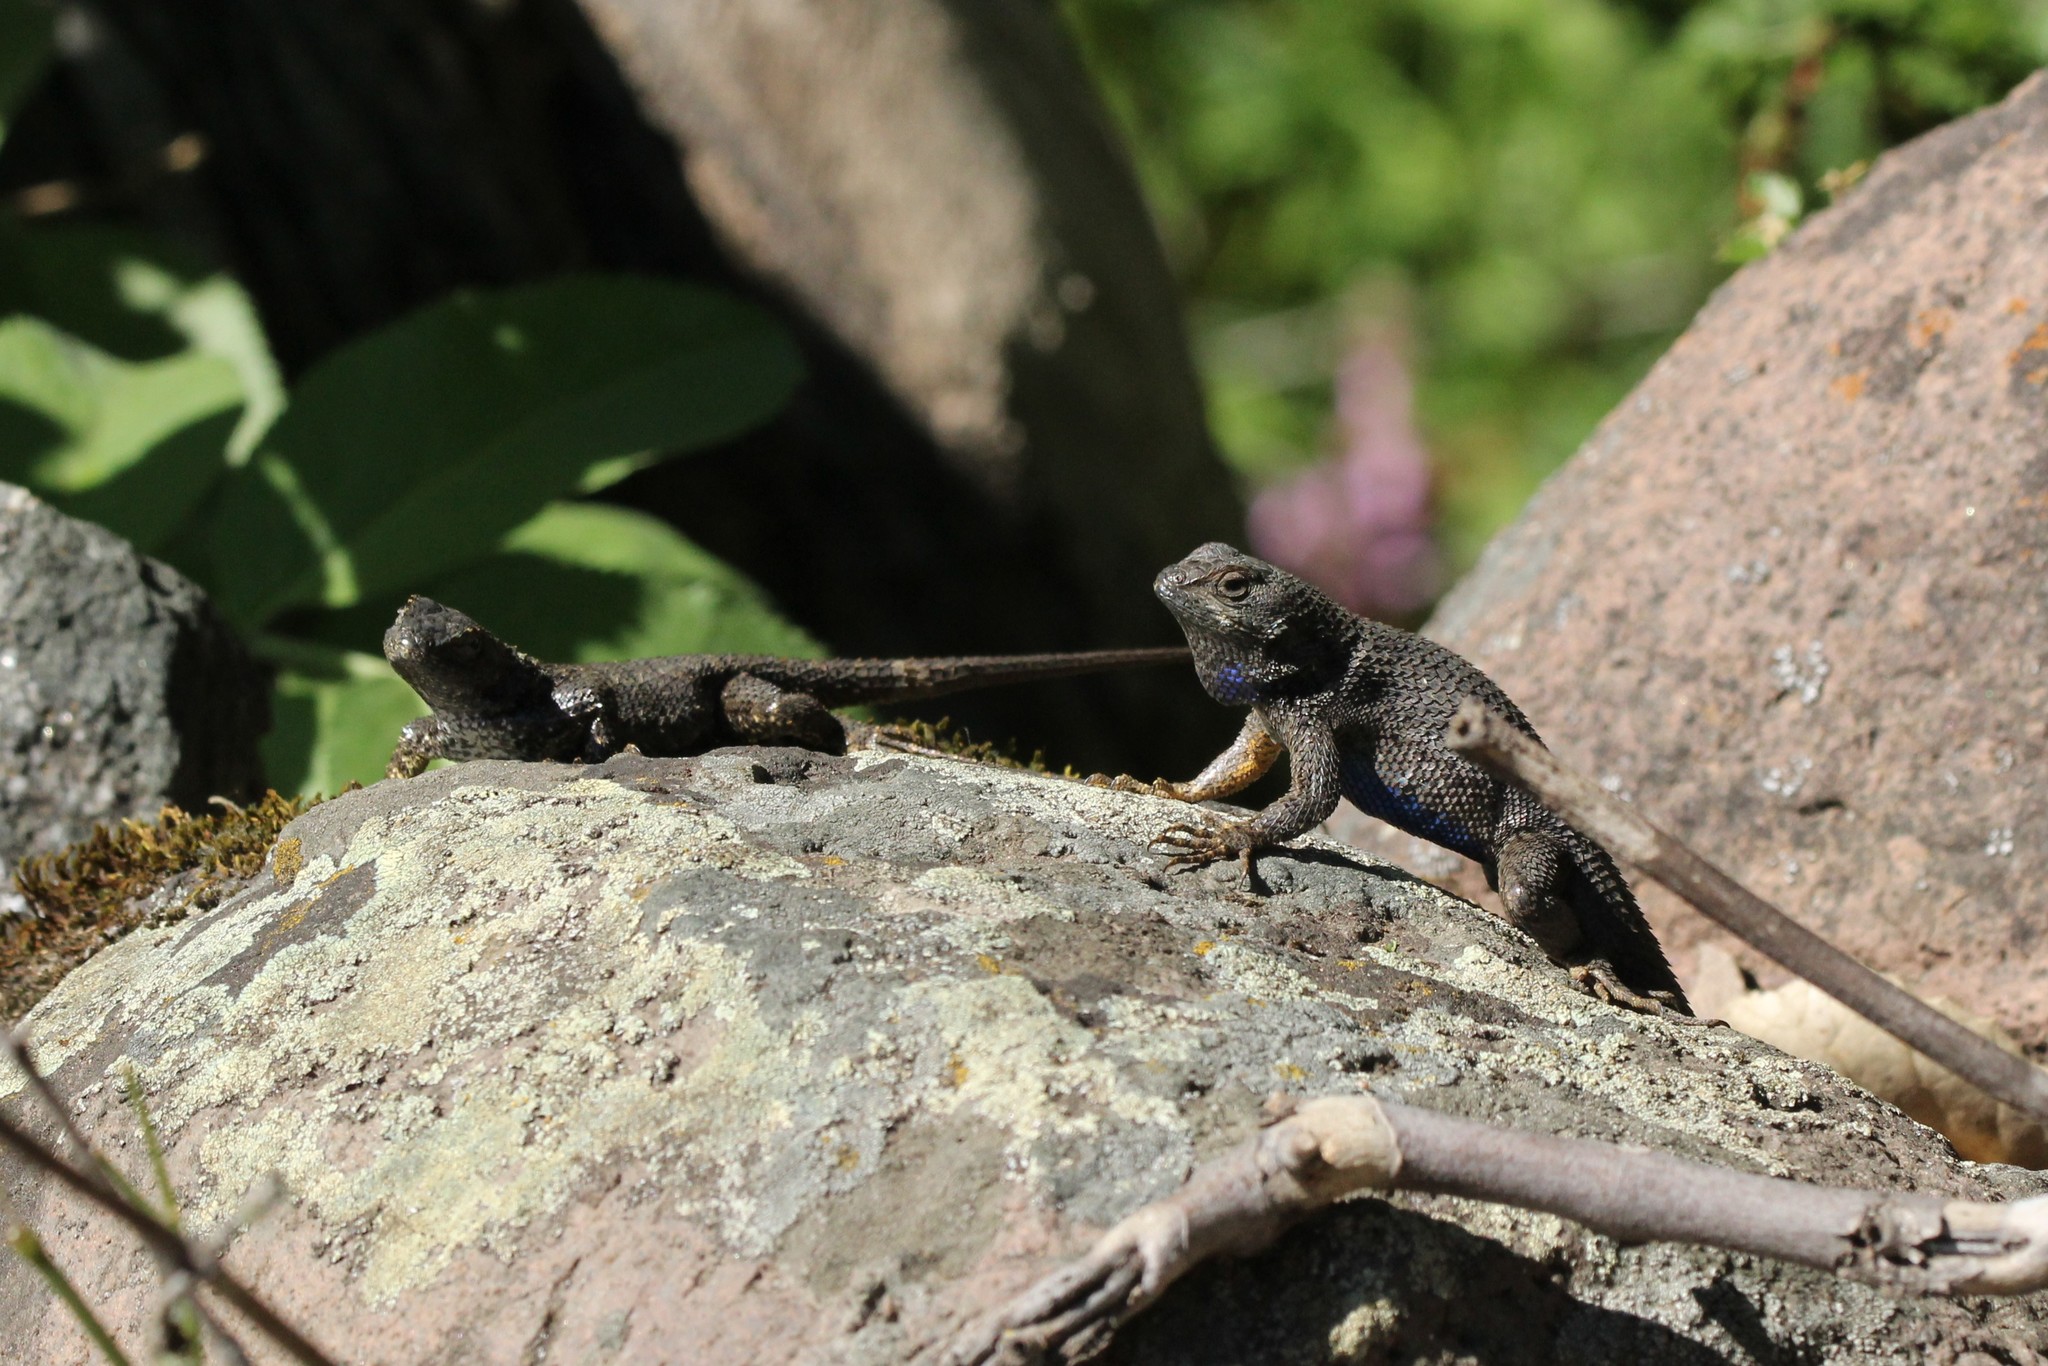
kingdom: Animalia
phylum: Chordata
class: Squamata
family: Phrynosomatidae
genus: Sceloporus
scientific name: Sceloporus occidentalis
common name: Western fence lizard
